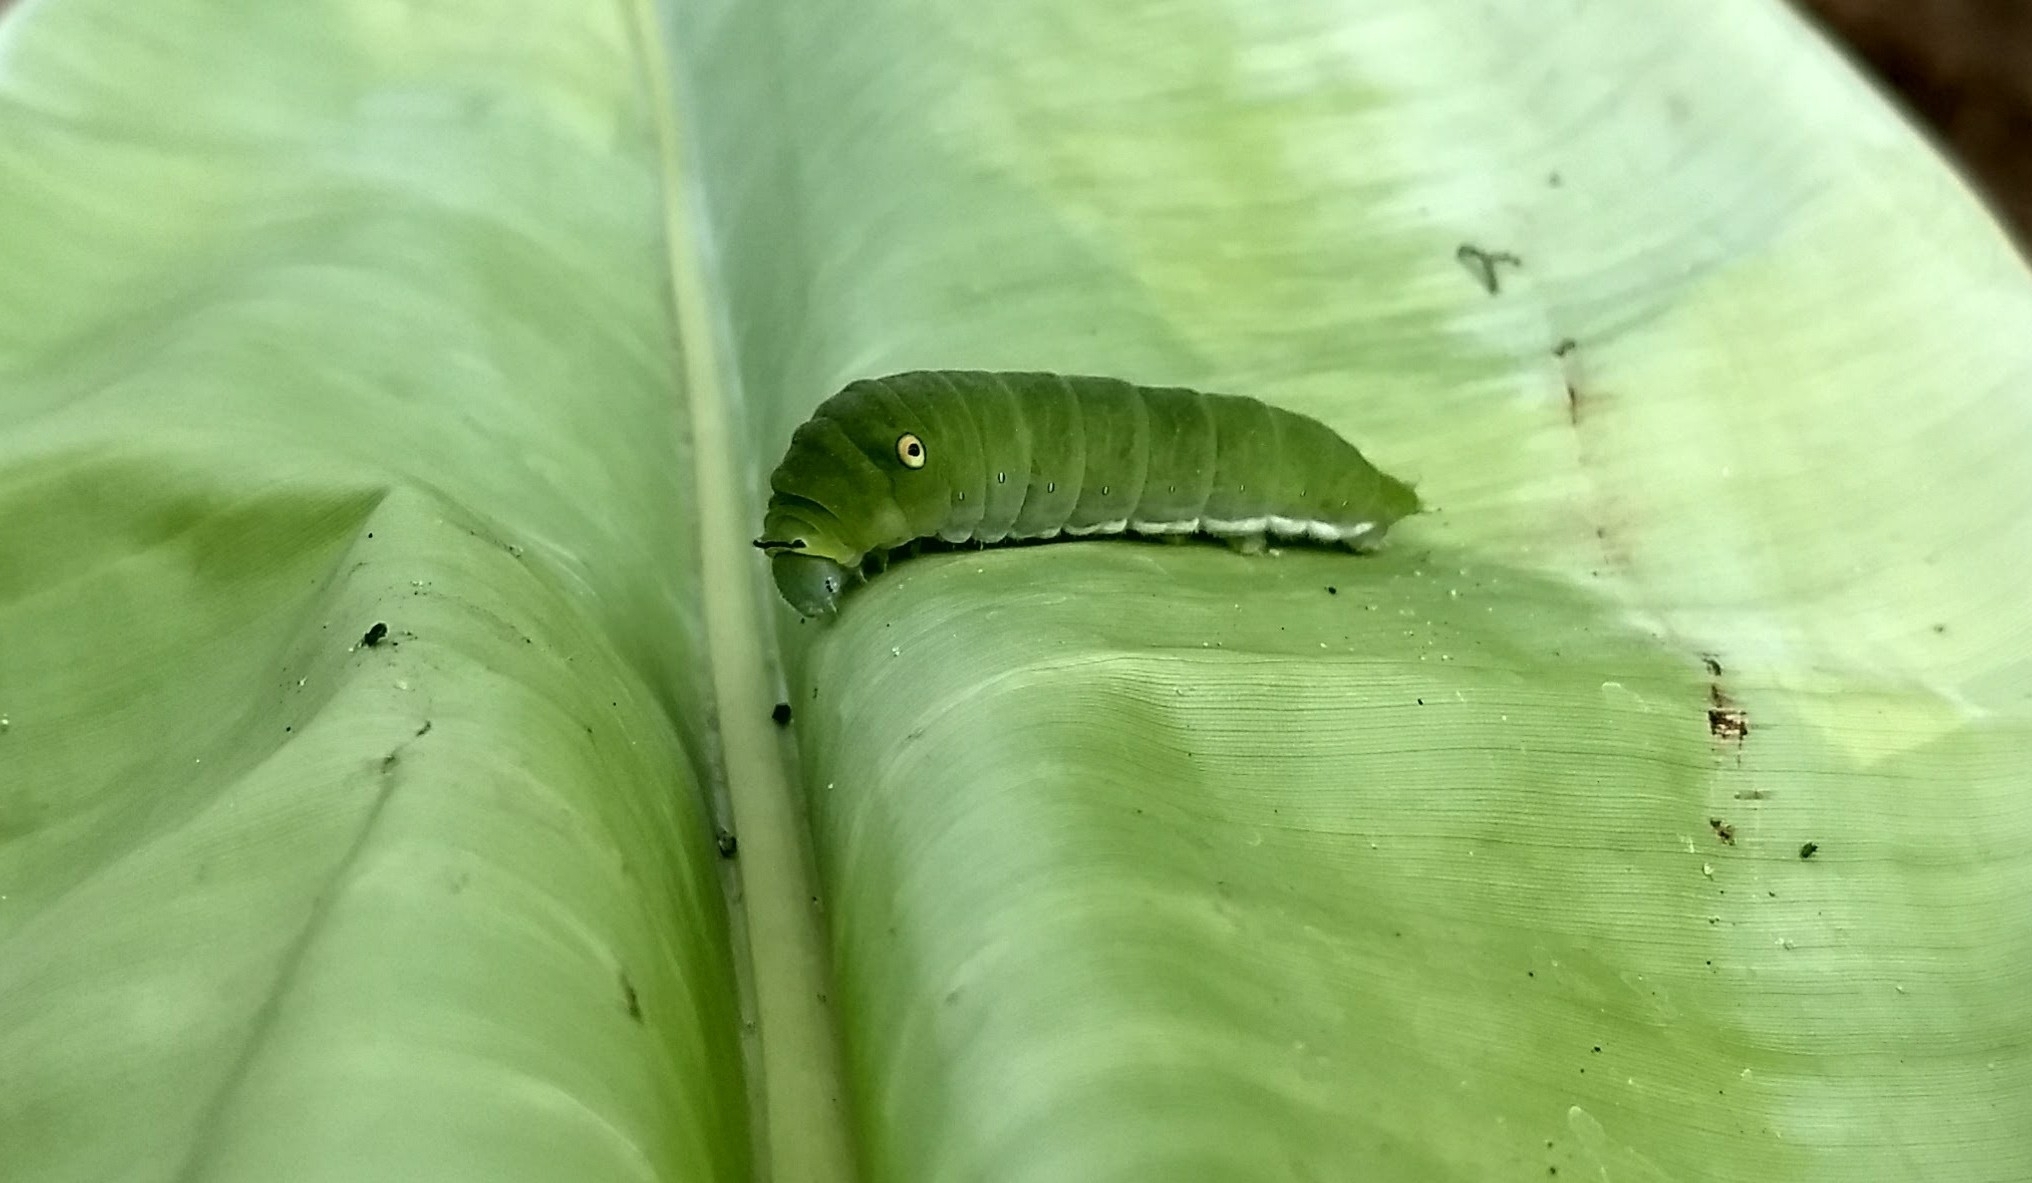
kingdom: Animalia
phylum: Arthropoda
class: Insecta
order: Lepidoptera
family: Papilionidae
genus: Graphium
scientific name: Graphium doson
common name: Common jay
